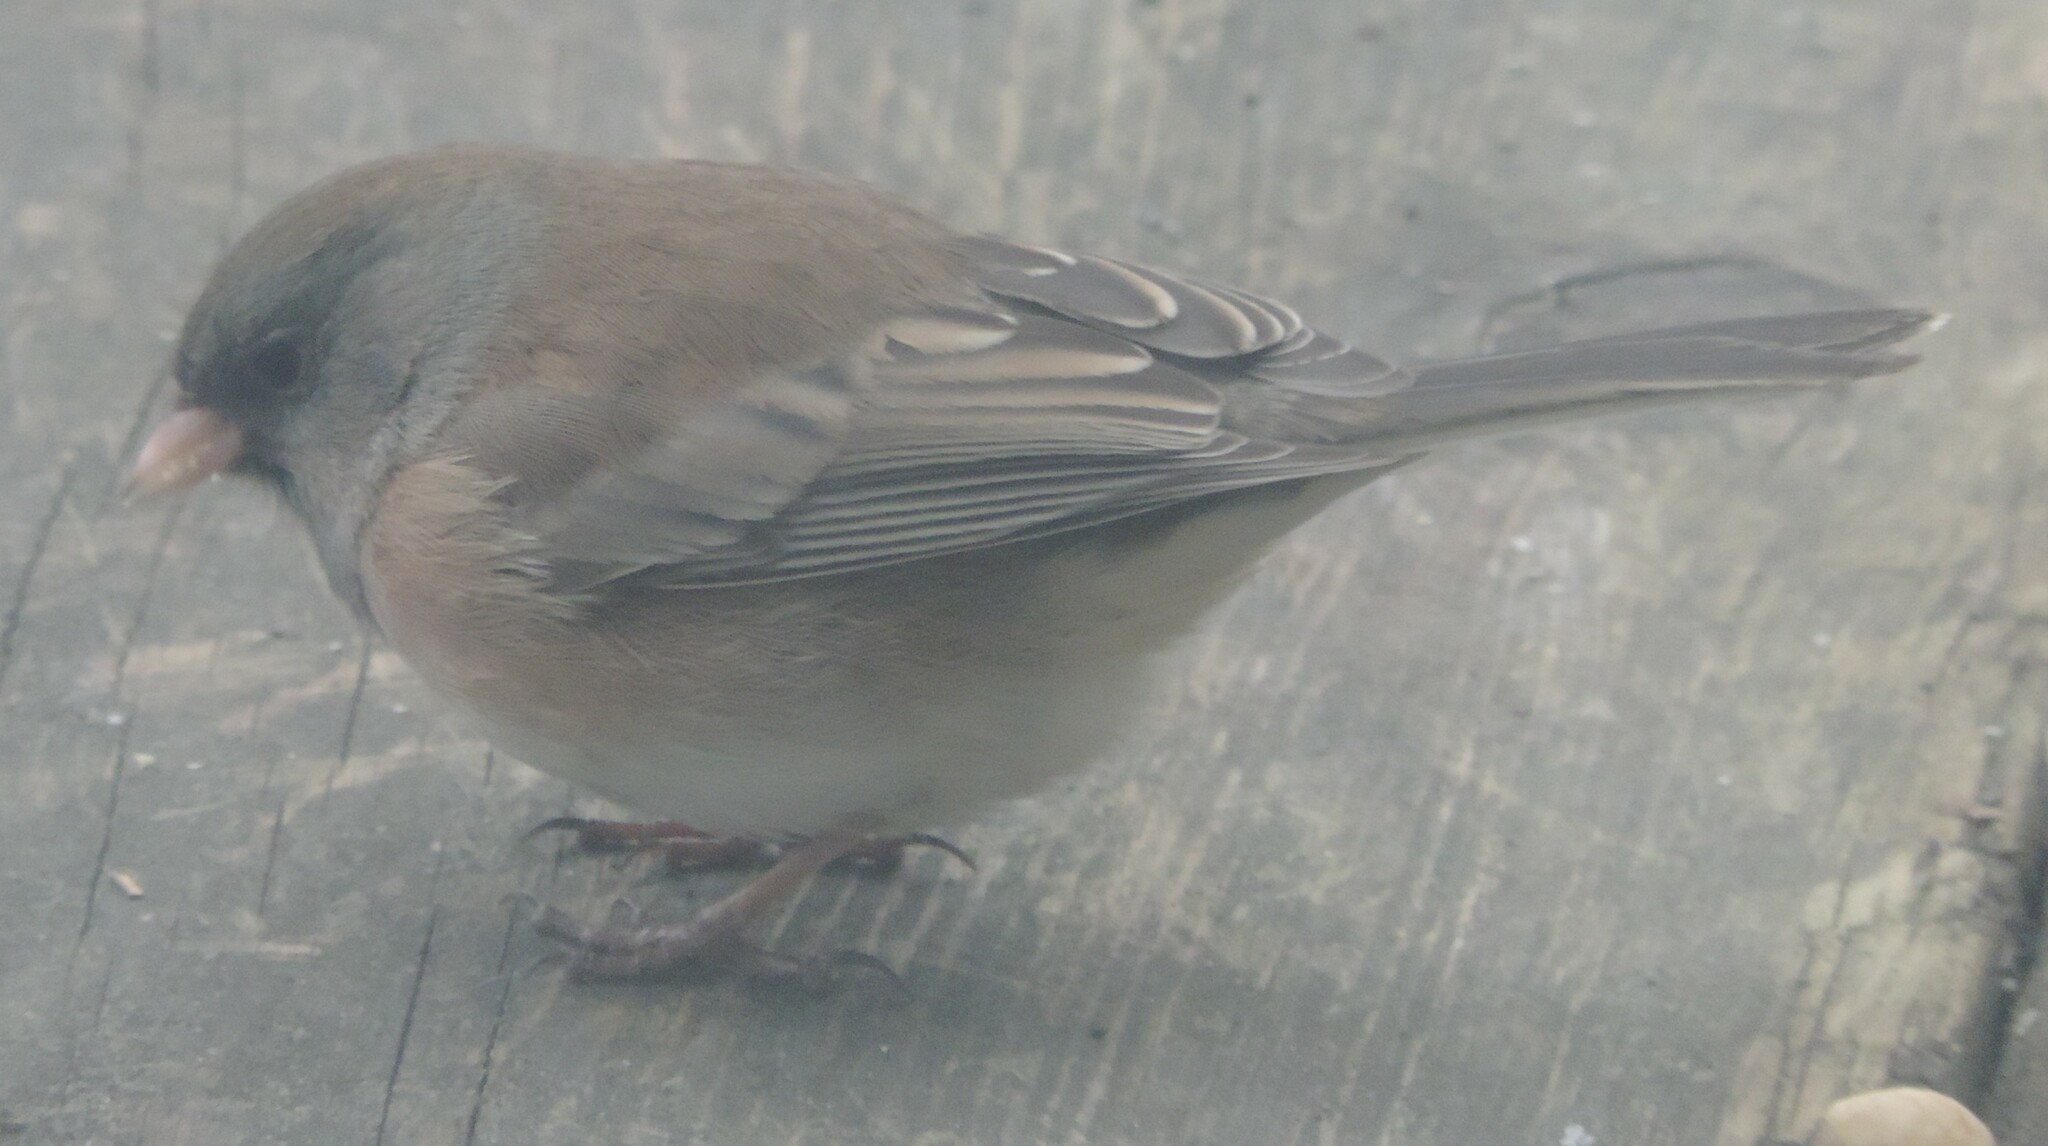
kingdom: Animalia
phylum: Chordata
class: Aves
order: Passeriformes
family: Passerellidae
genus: Junco
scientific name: Junco hyemalis
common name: Dark-eyed junco
